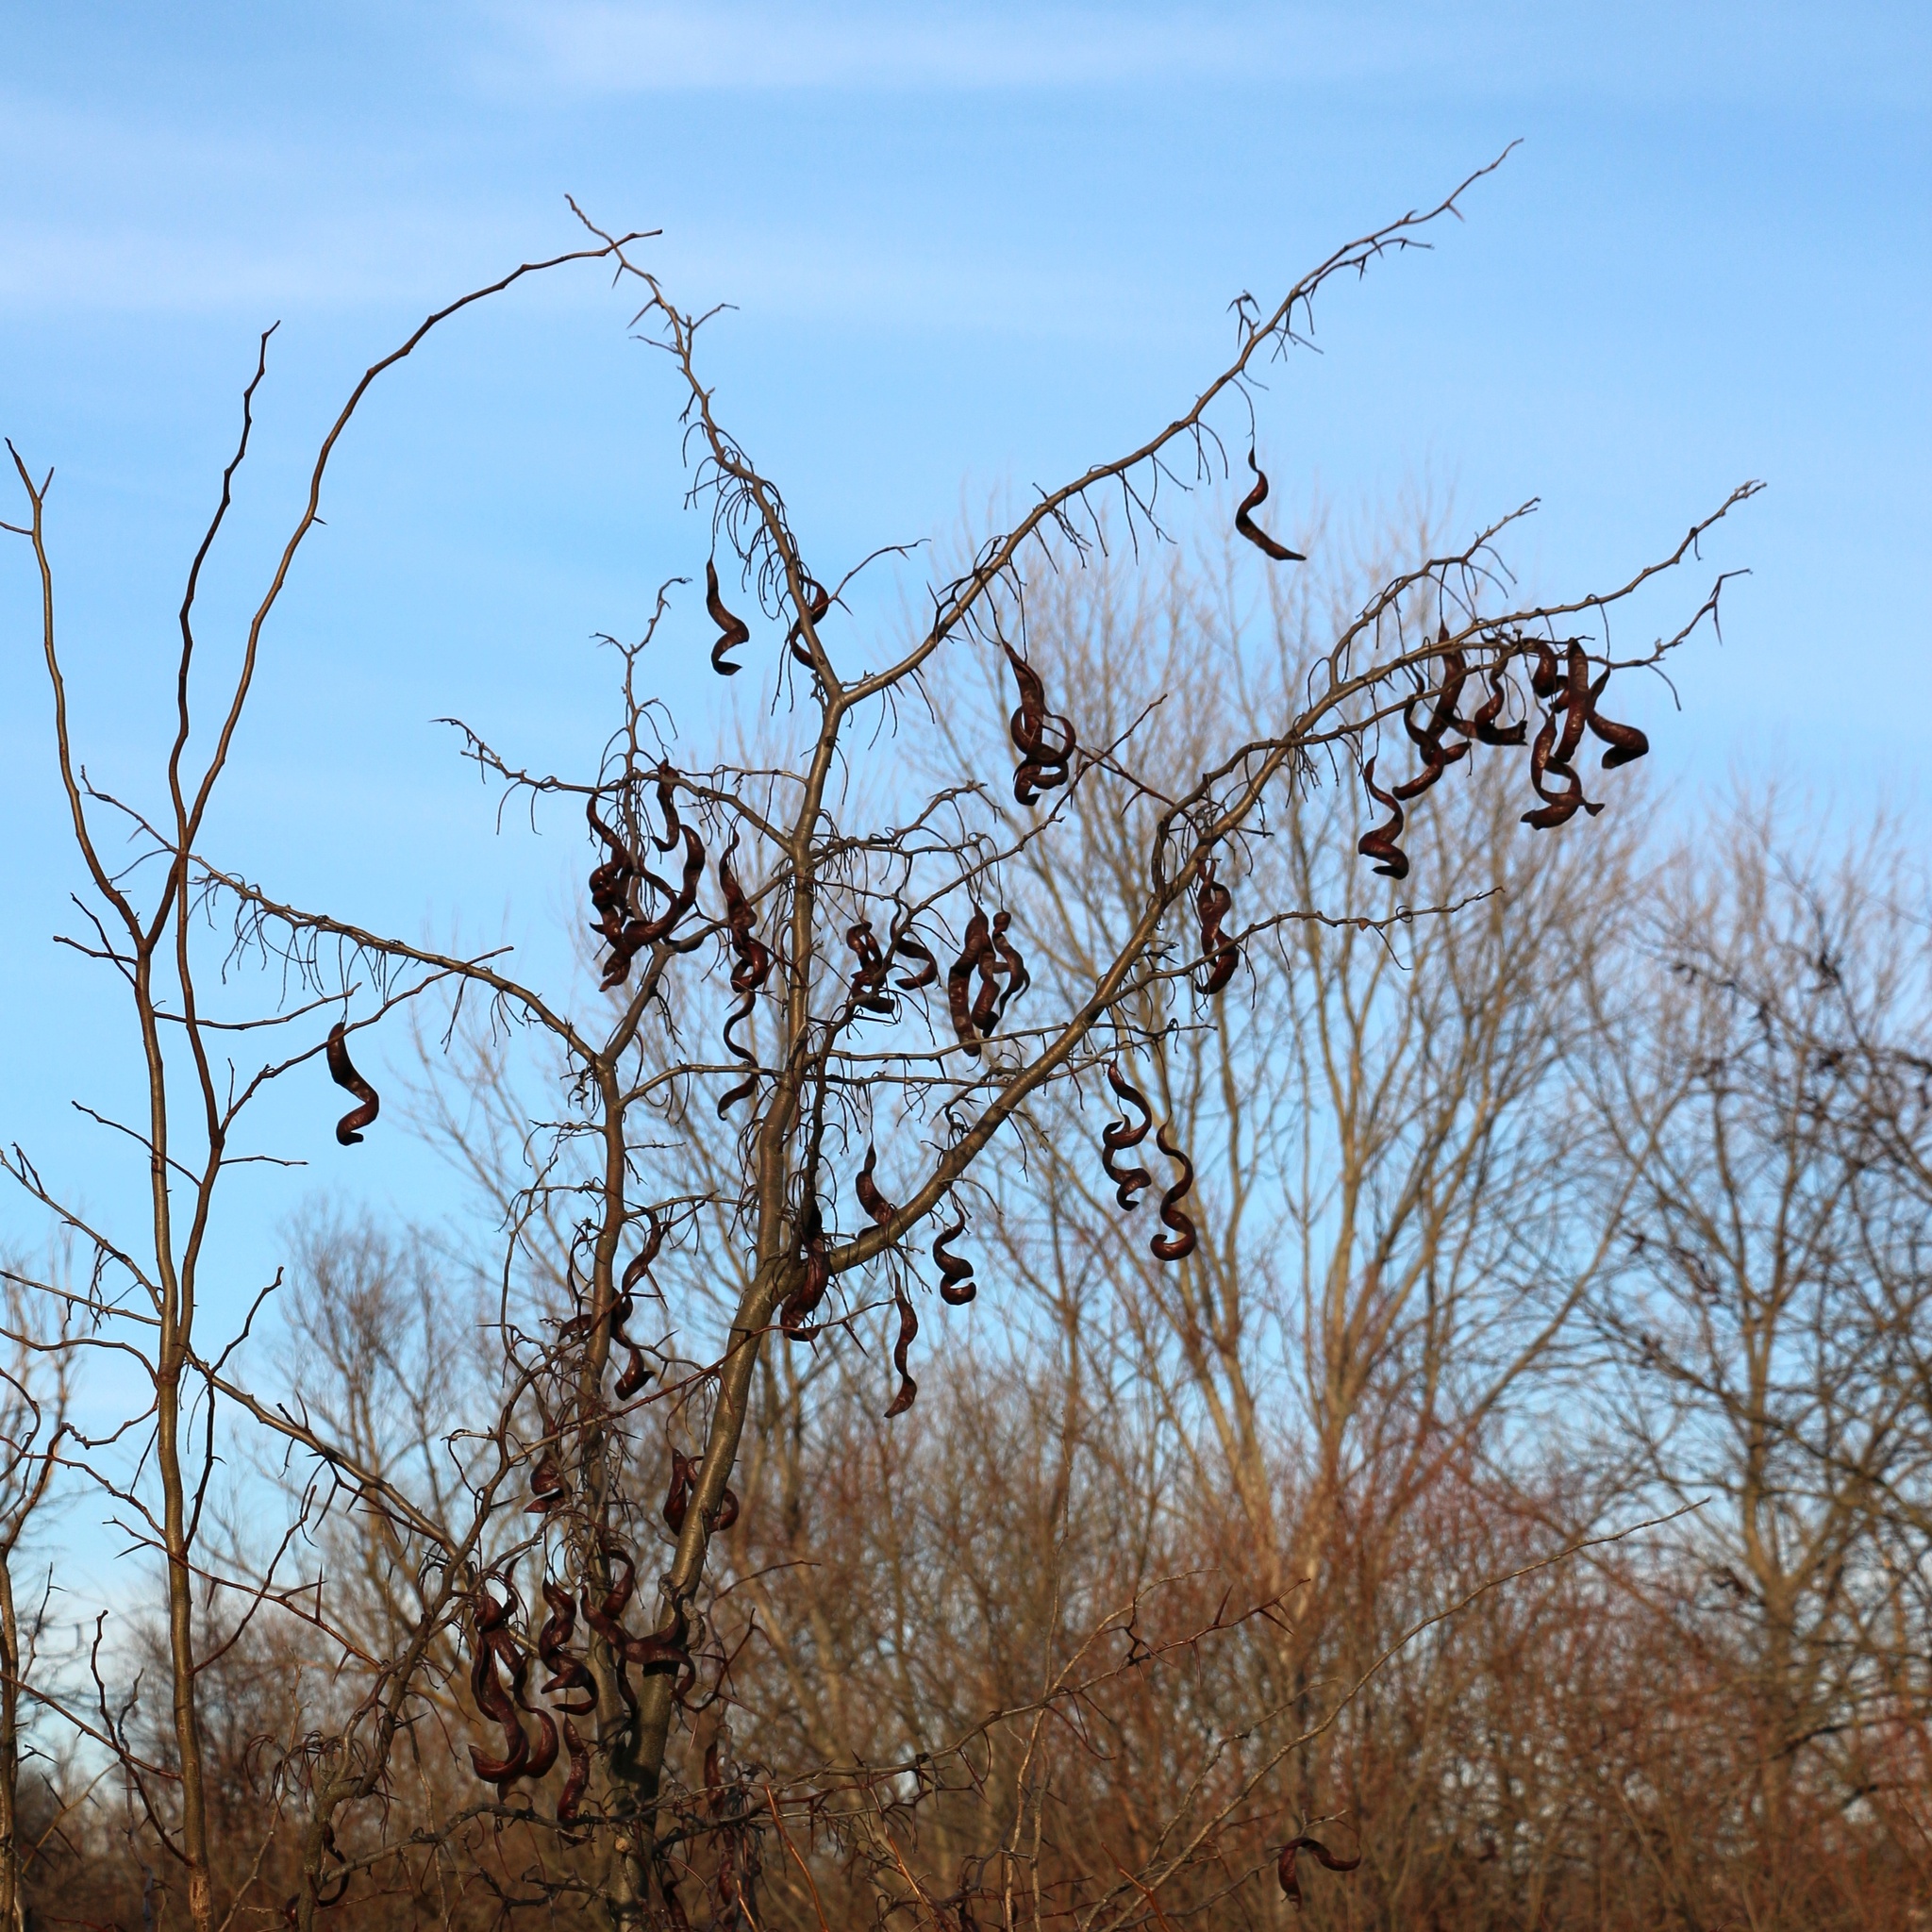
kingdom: Plantae
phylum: Tracheophyta
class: Magnoliopsida
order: Fabales
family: Fabaceae
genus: Gleditsia
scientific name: Gleditsia triacanthos
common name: Common honeylocust
